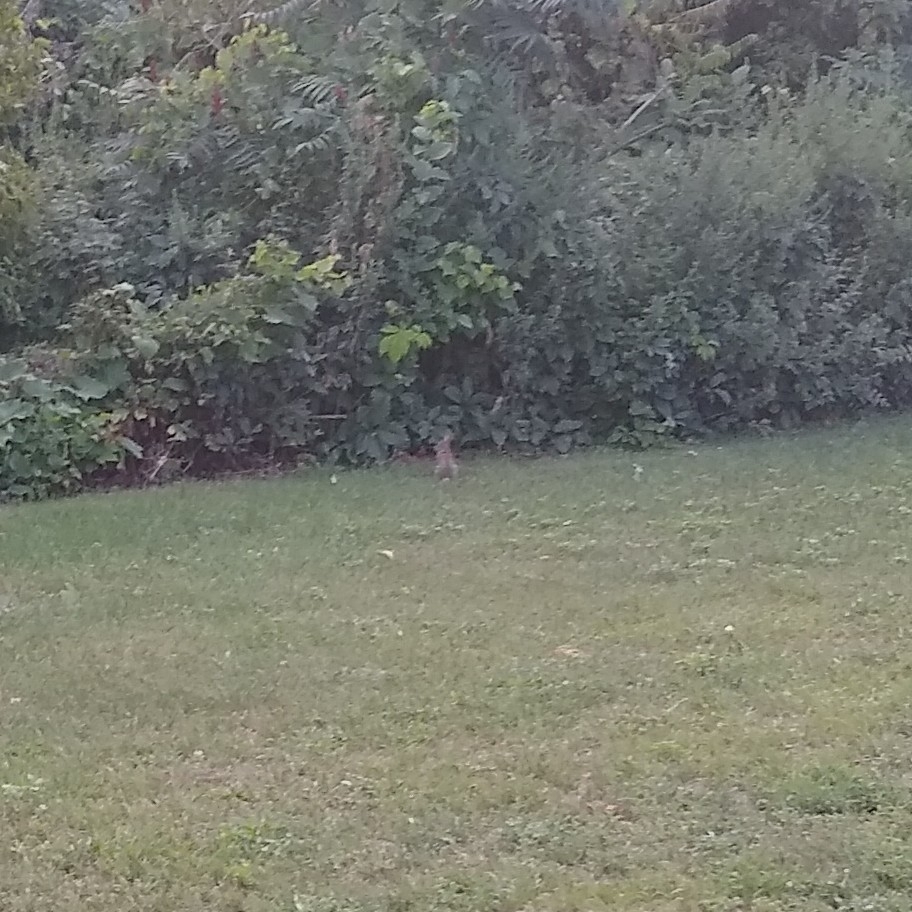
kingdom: Animalia
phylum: Chordata
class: Mammalia
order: Lagomorpha
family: Leporidae
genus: Sylvilagus
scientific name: Sylvilagus floridanus
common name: Eastern cottontail
